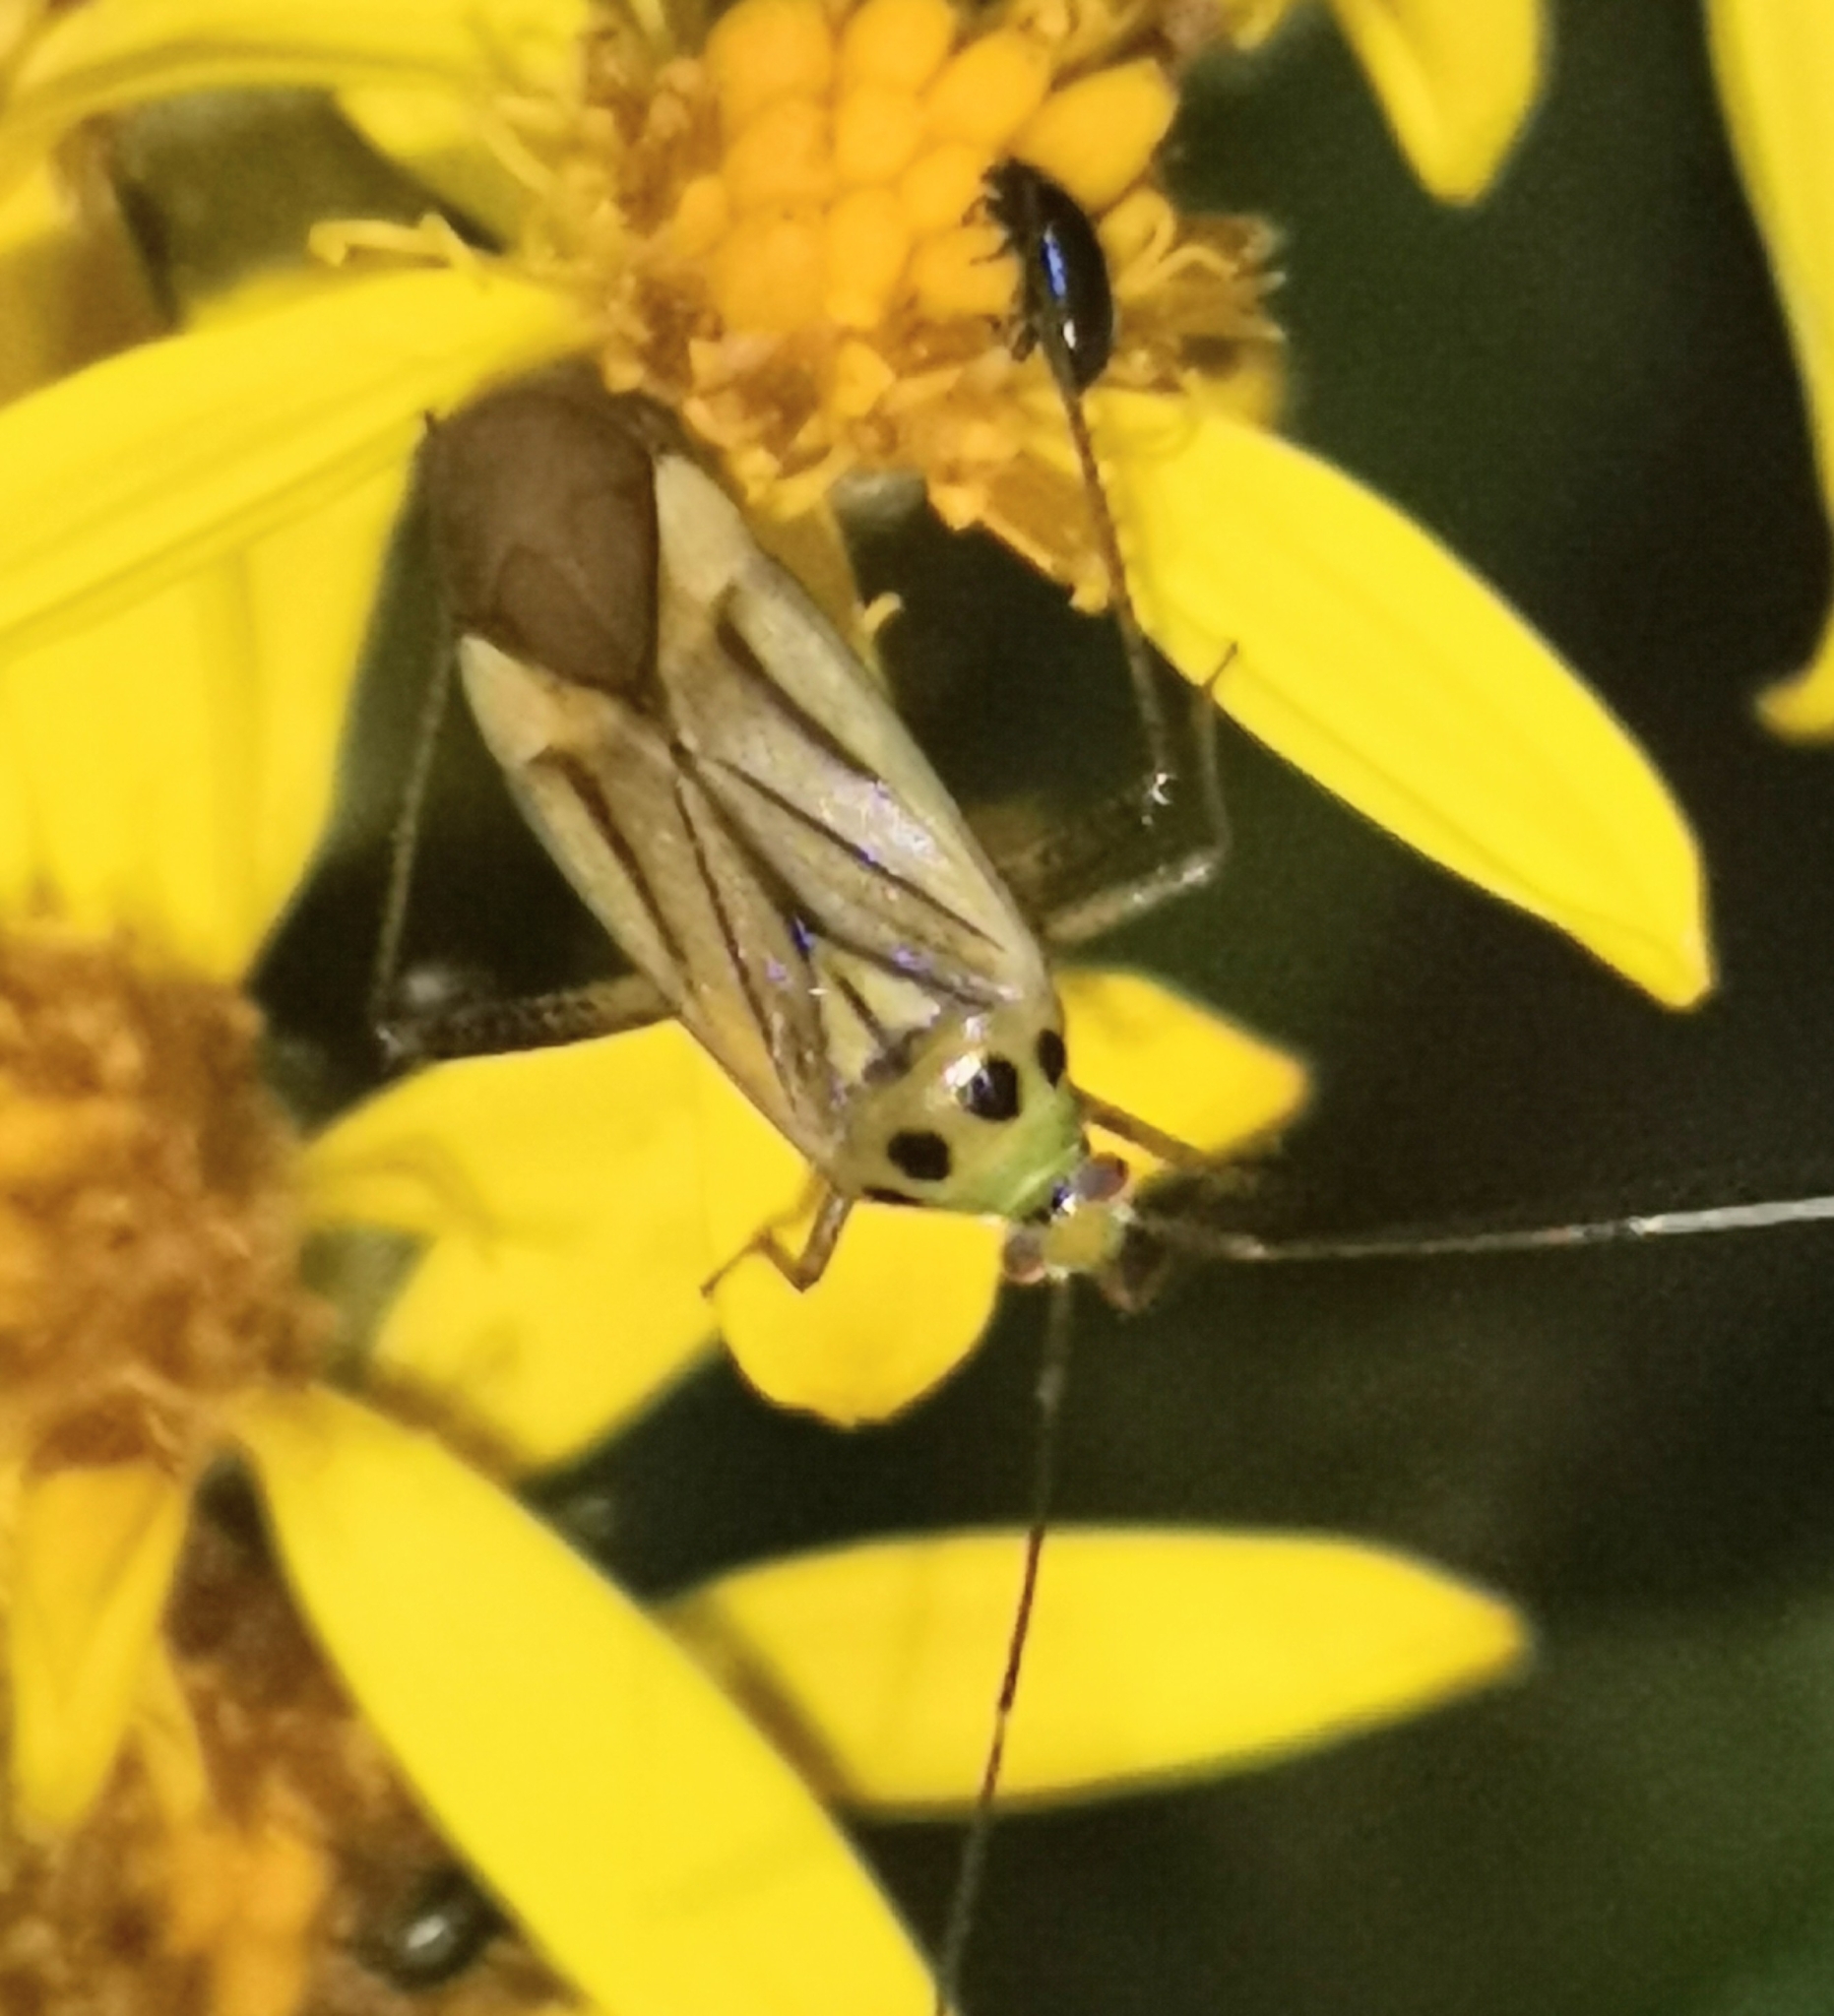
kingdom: Animalia
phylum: Arthropoda
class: Insecta
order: Hemiptera
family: Miridae
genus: Adelphocoris
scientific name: Adelphocoris quadripunctatus
